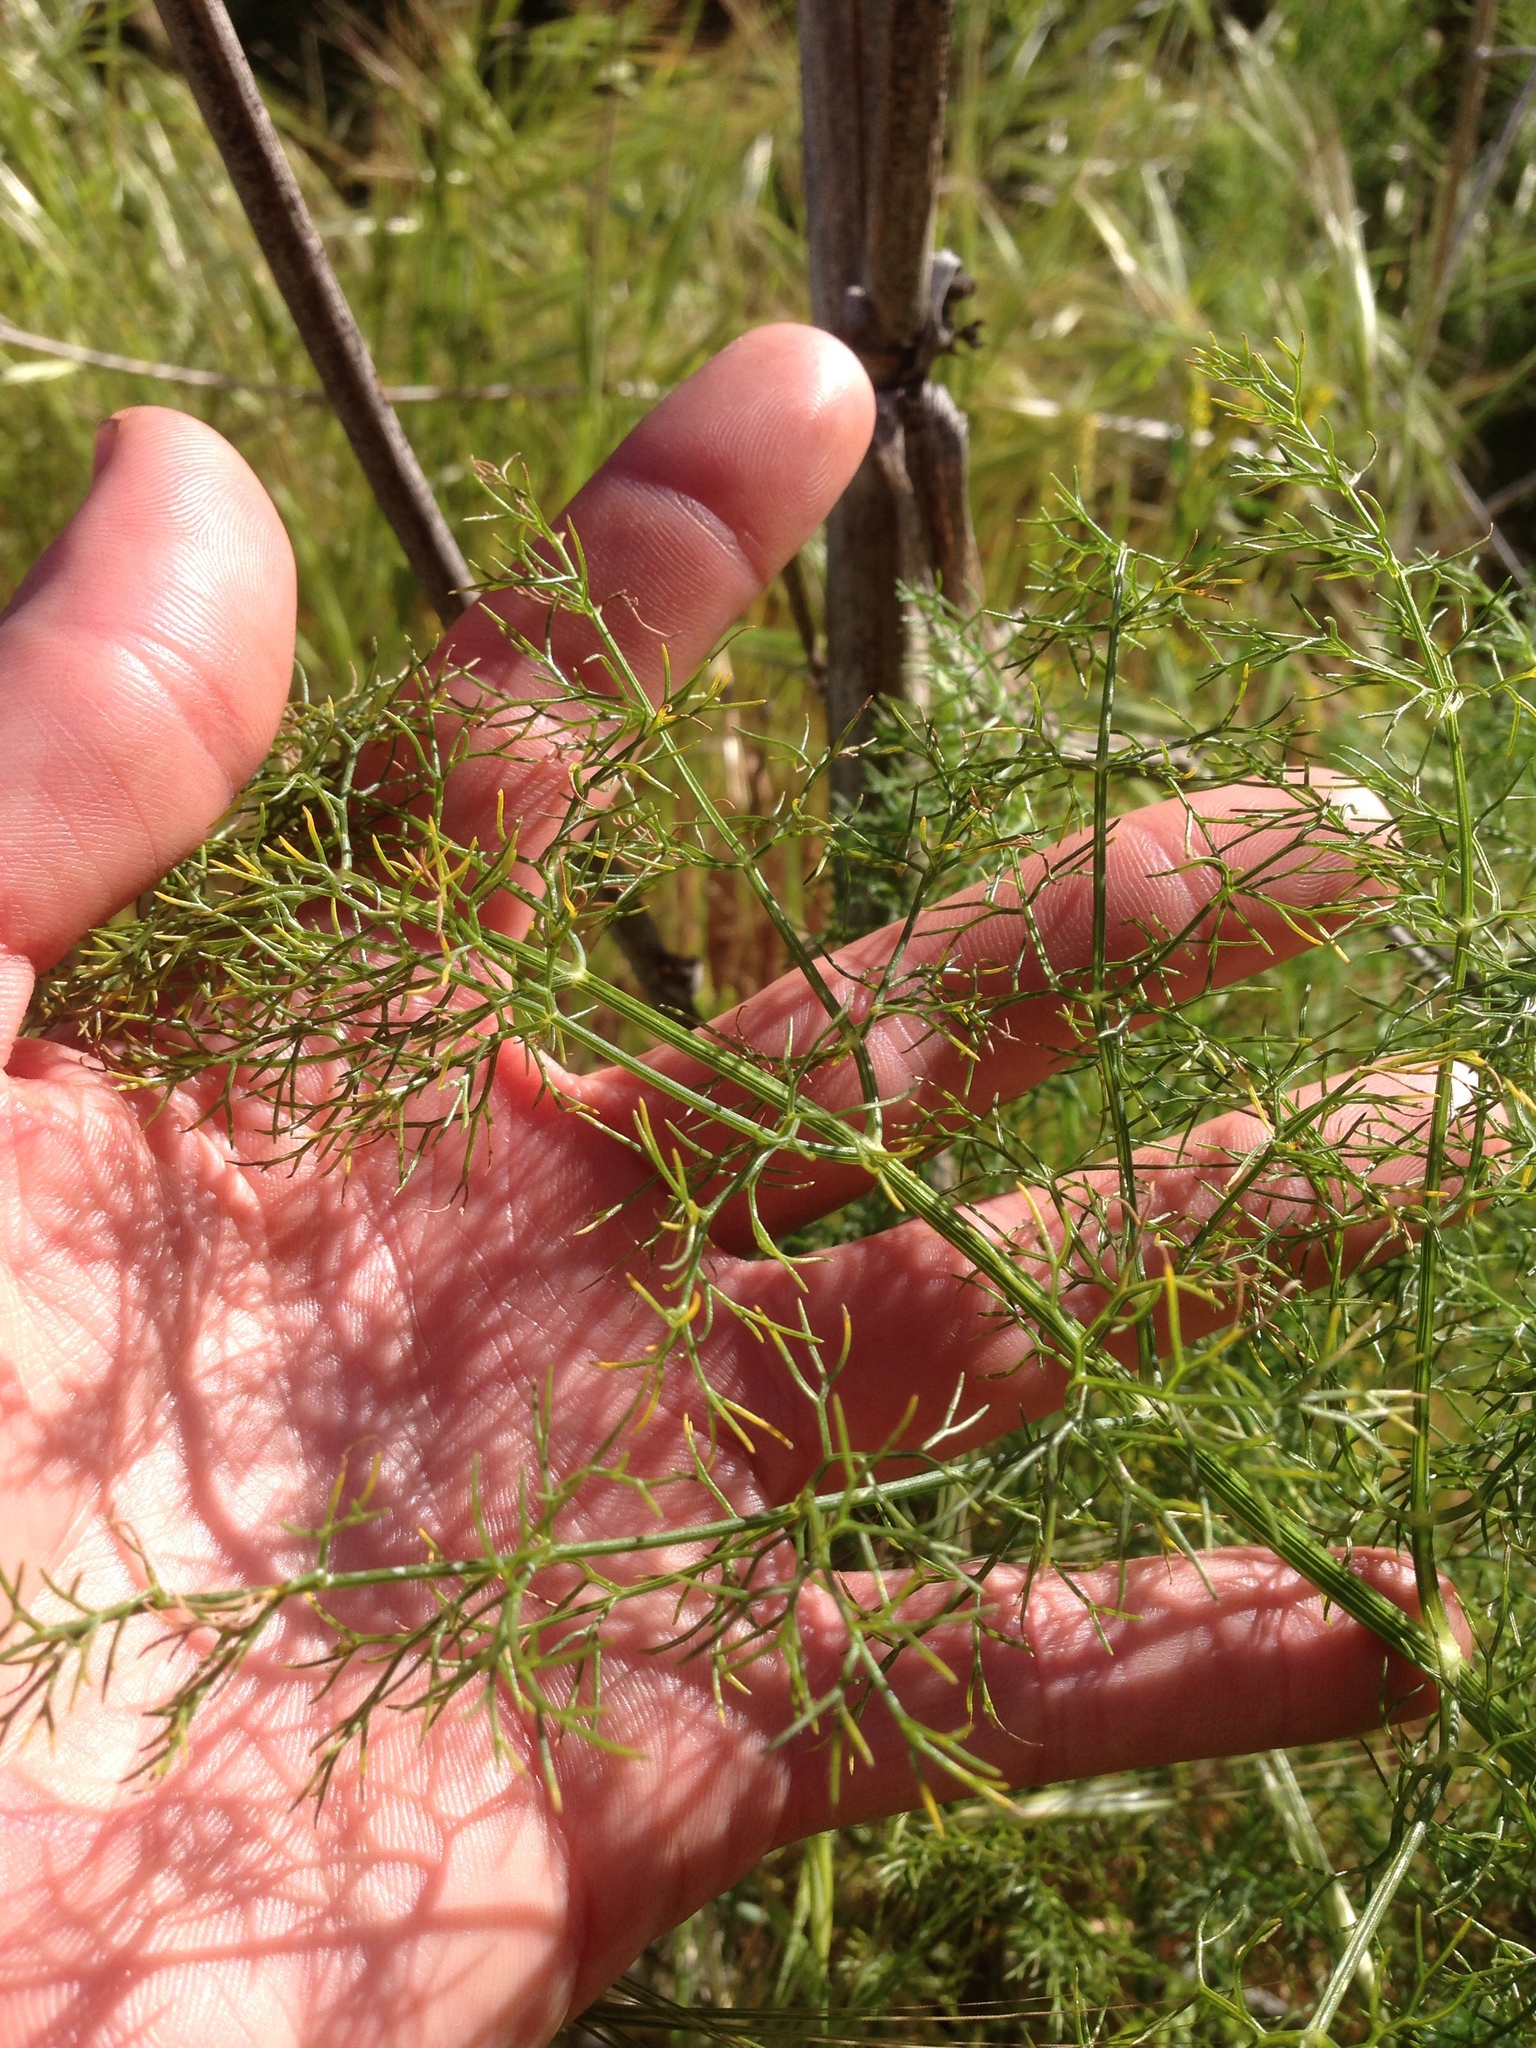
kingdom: Plantae
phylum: Tracheophyta
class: Magnoliopsida
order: Apiales
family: Apiaceae
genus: Foeniculum
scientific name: Foeniculum vulgare
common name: Fennel
